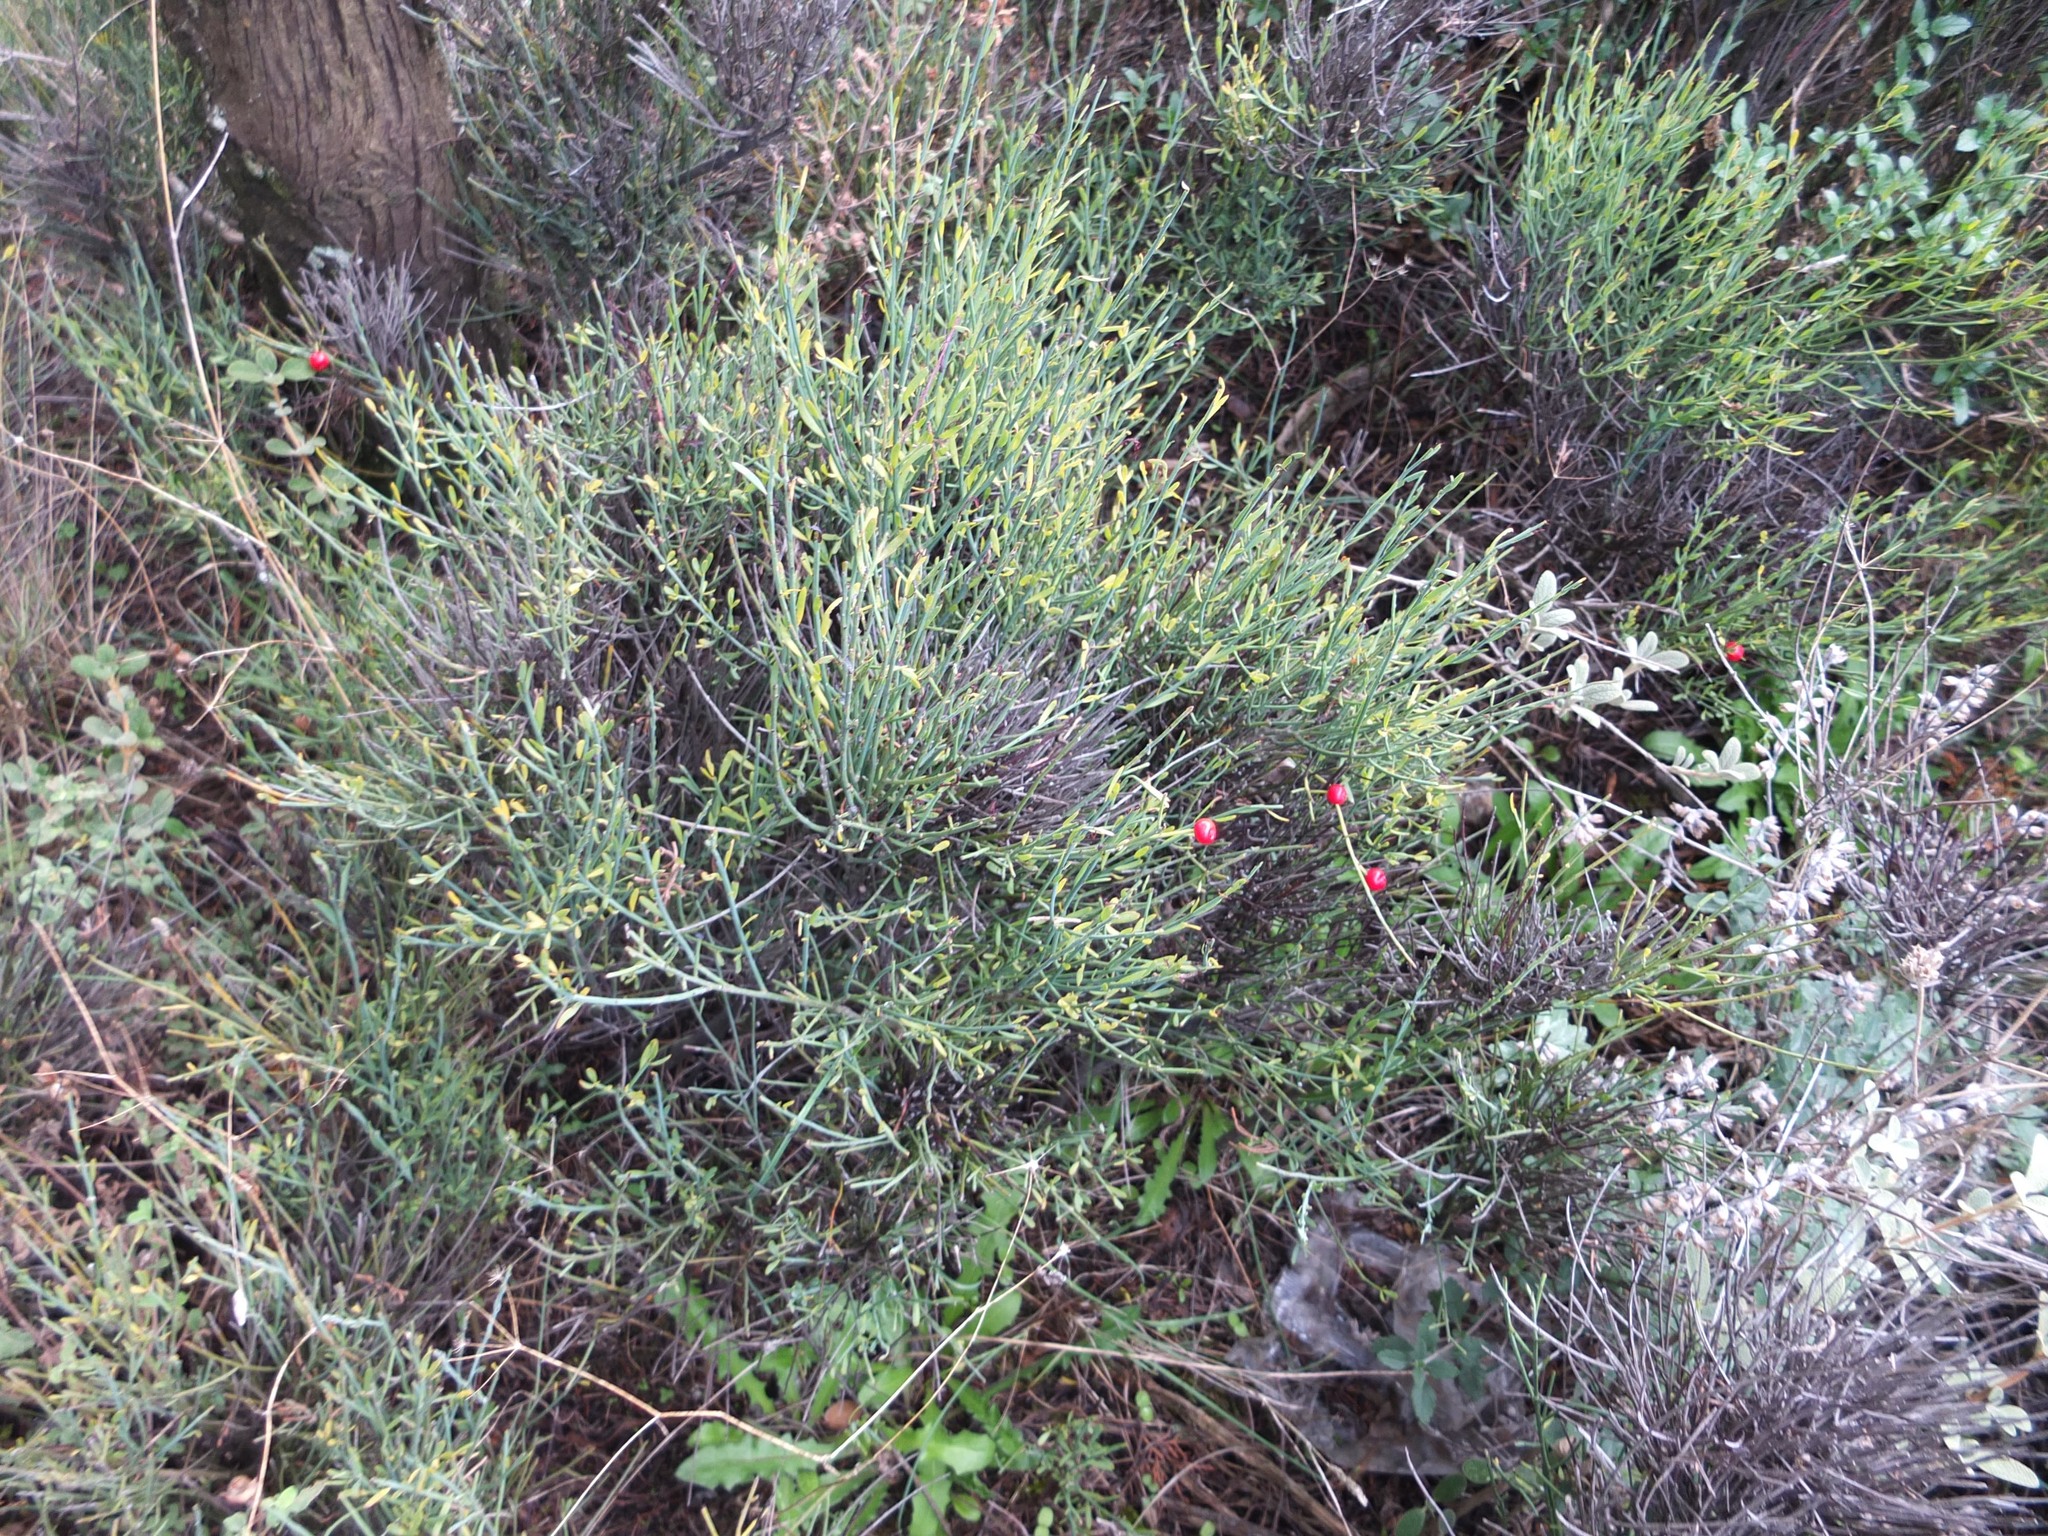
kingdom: Plantae
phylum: Tracheophyta
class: Magnoliopsida
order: Santalales
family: Santalaceae
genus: Osyris
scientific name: Osyris alba
